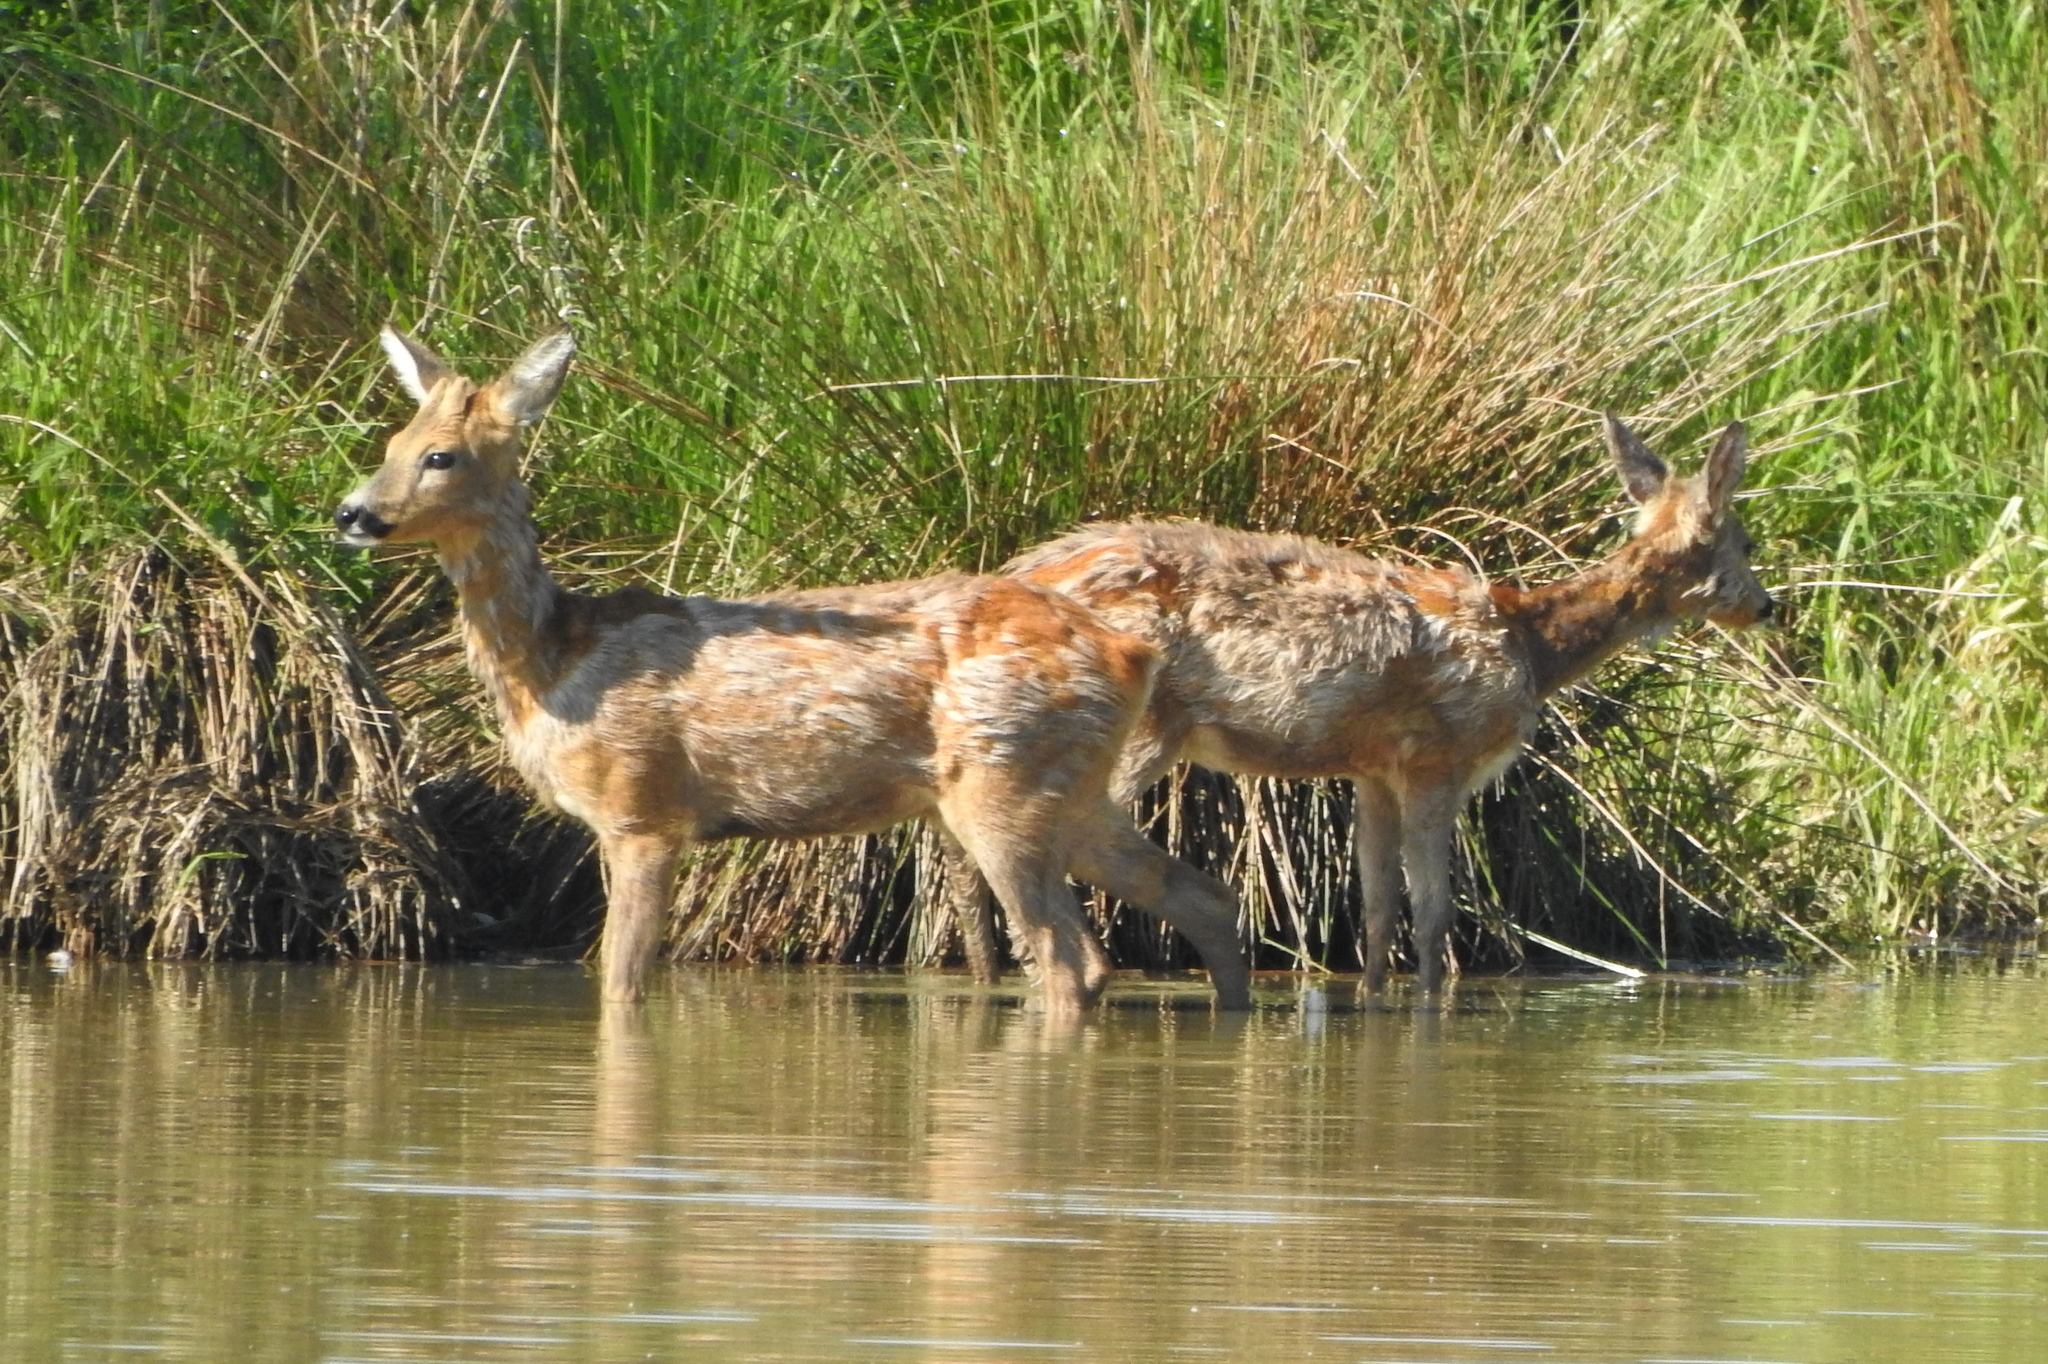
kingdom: Animalia
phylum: Chordata
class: Mammalia
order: Artiodactyla
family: Cervidae
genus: Capreolus
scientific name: Capreolus capreolus
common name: Western roe deer
